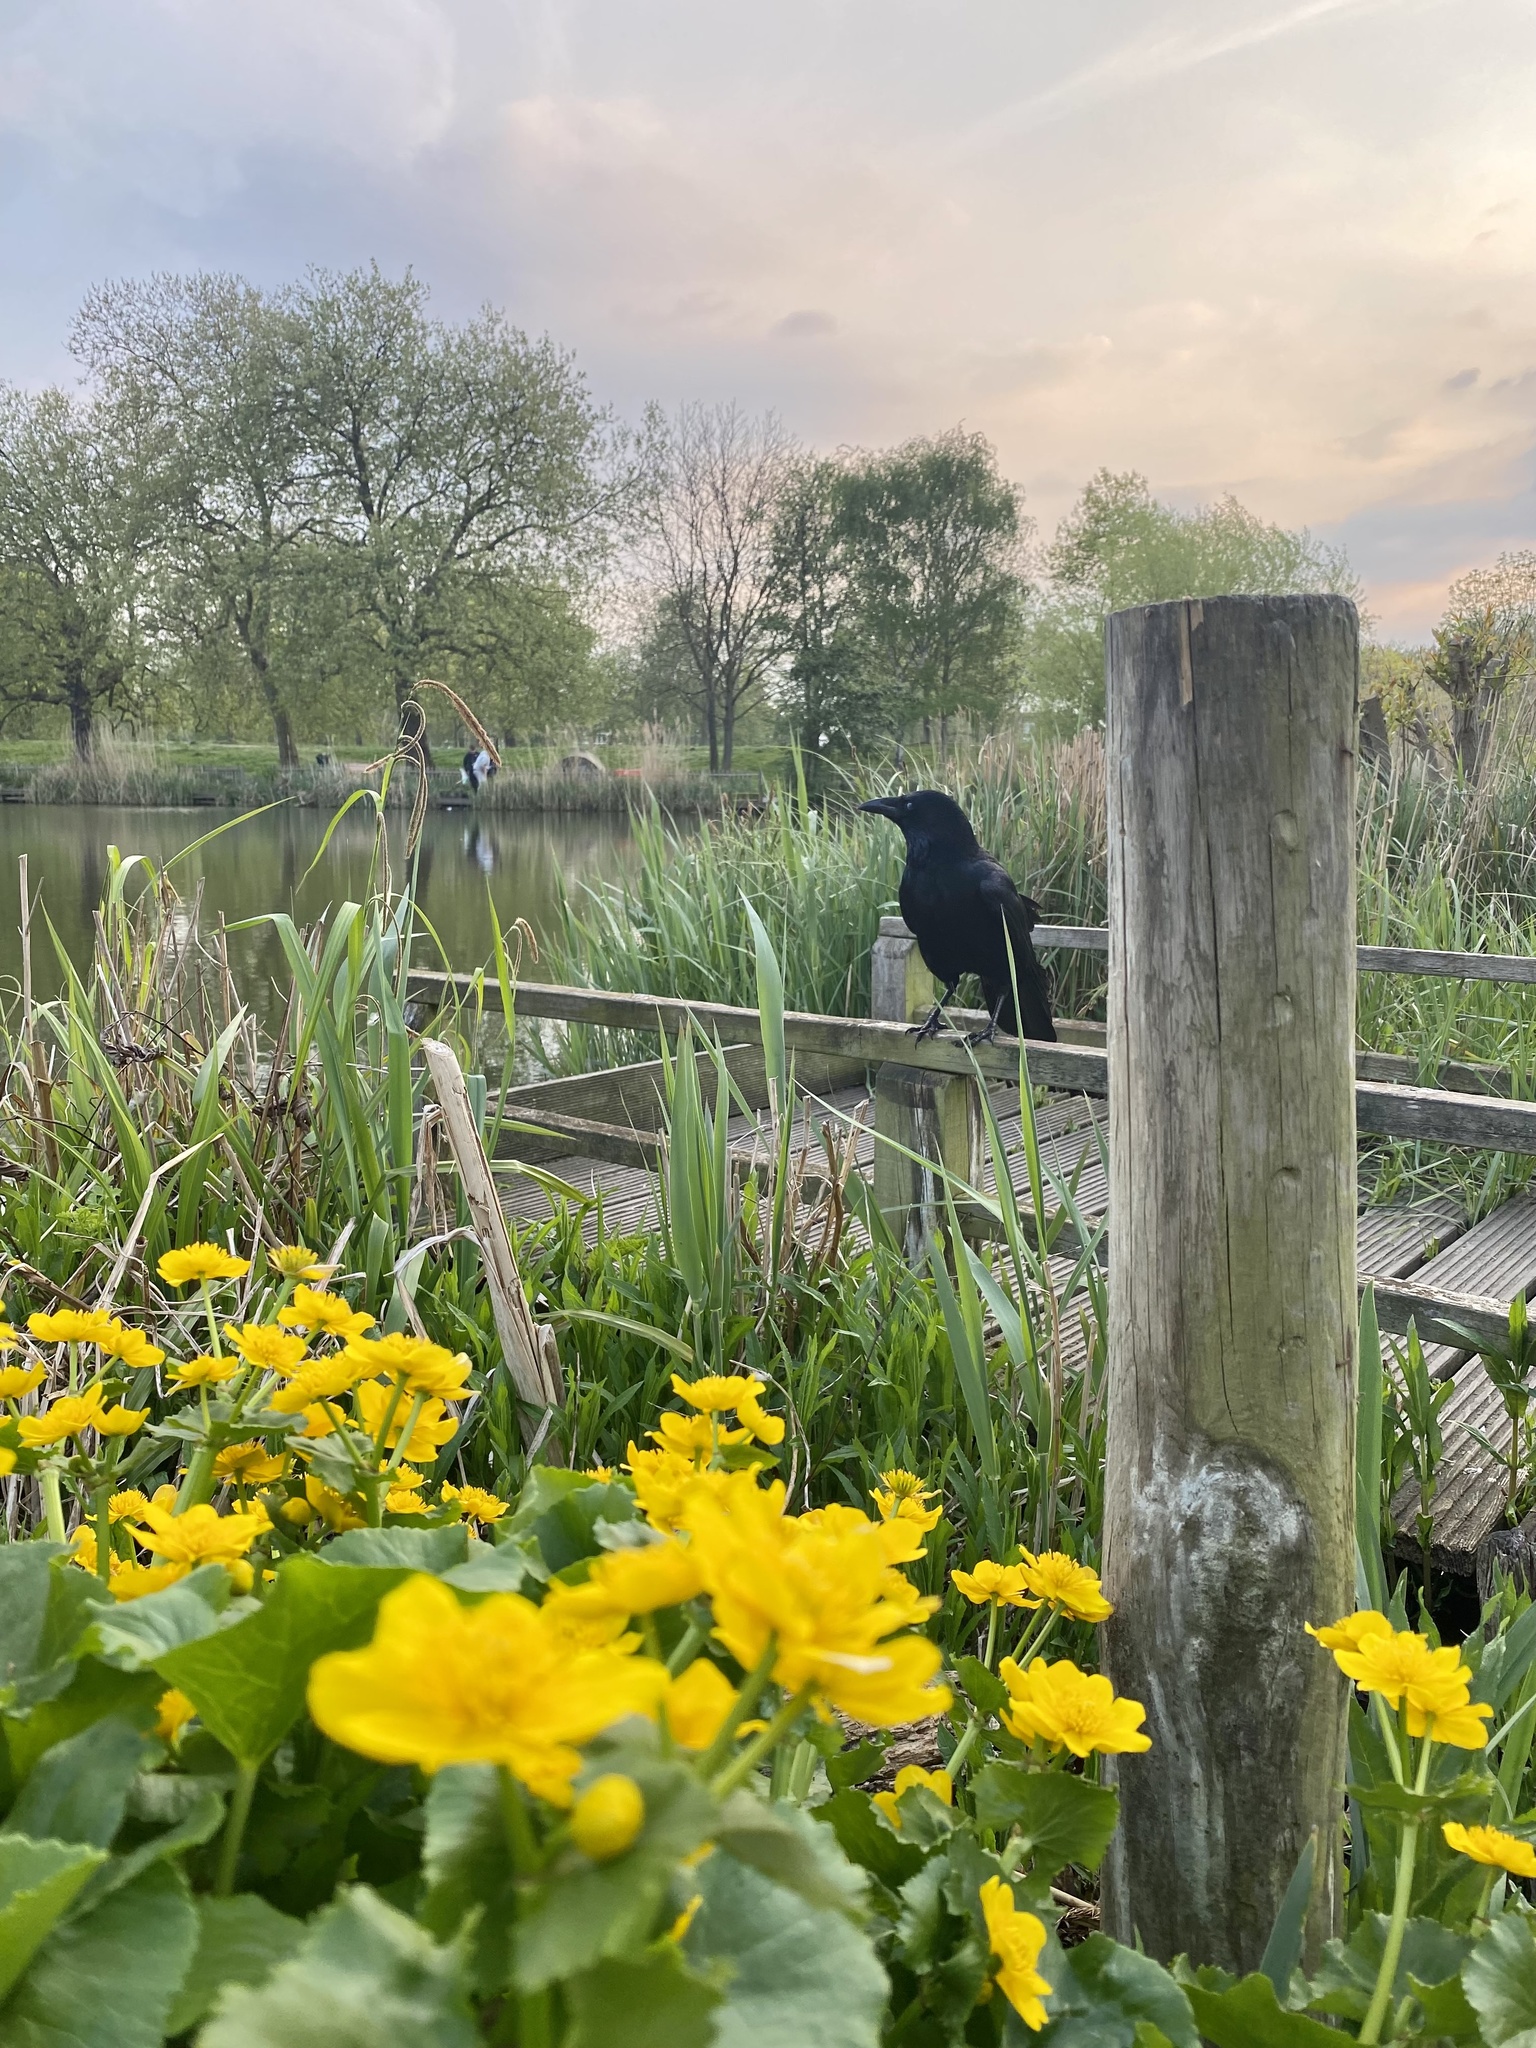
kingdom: Animalia
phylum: Chordata
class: Aves
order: Passeriformes
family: Corvidae
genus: Corvus
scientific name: Corvus corone
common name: Carrion crow
